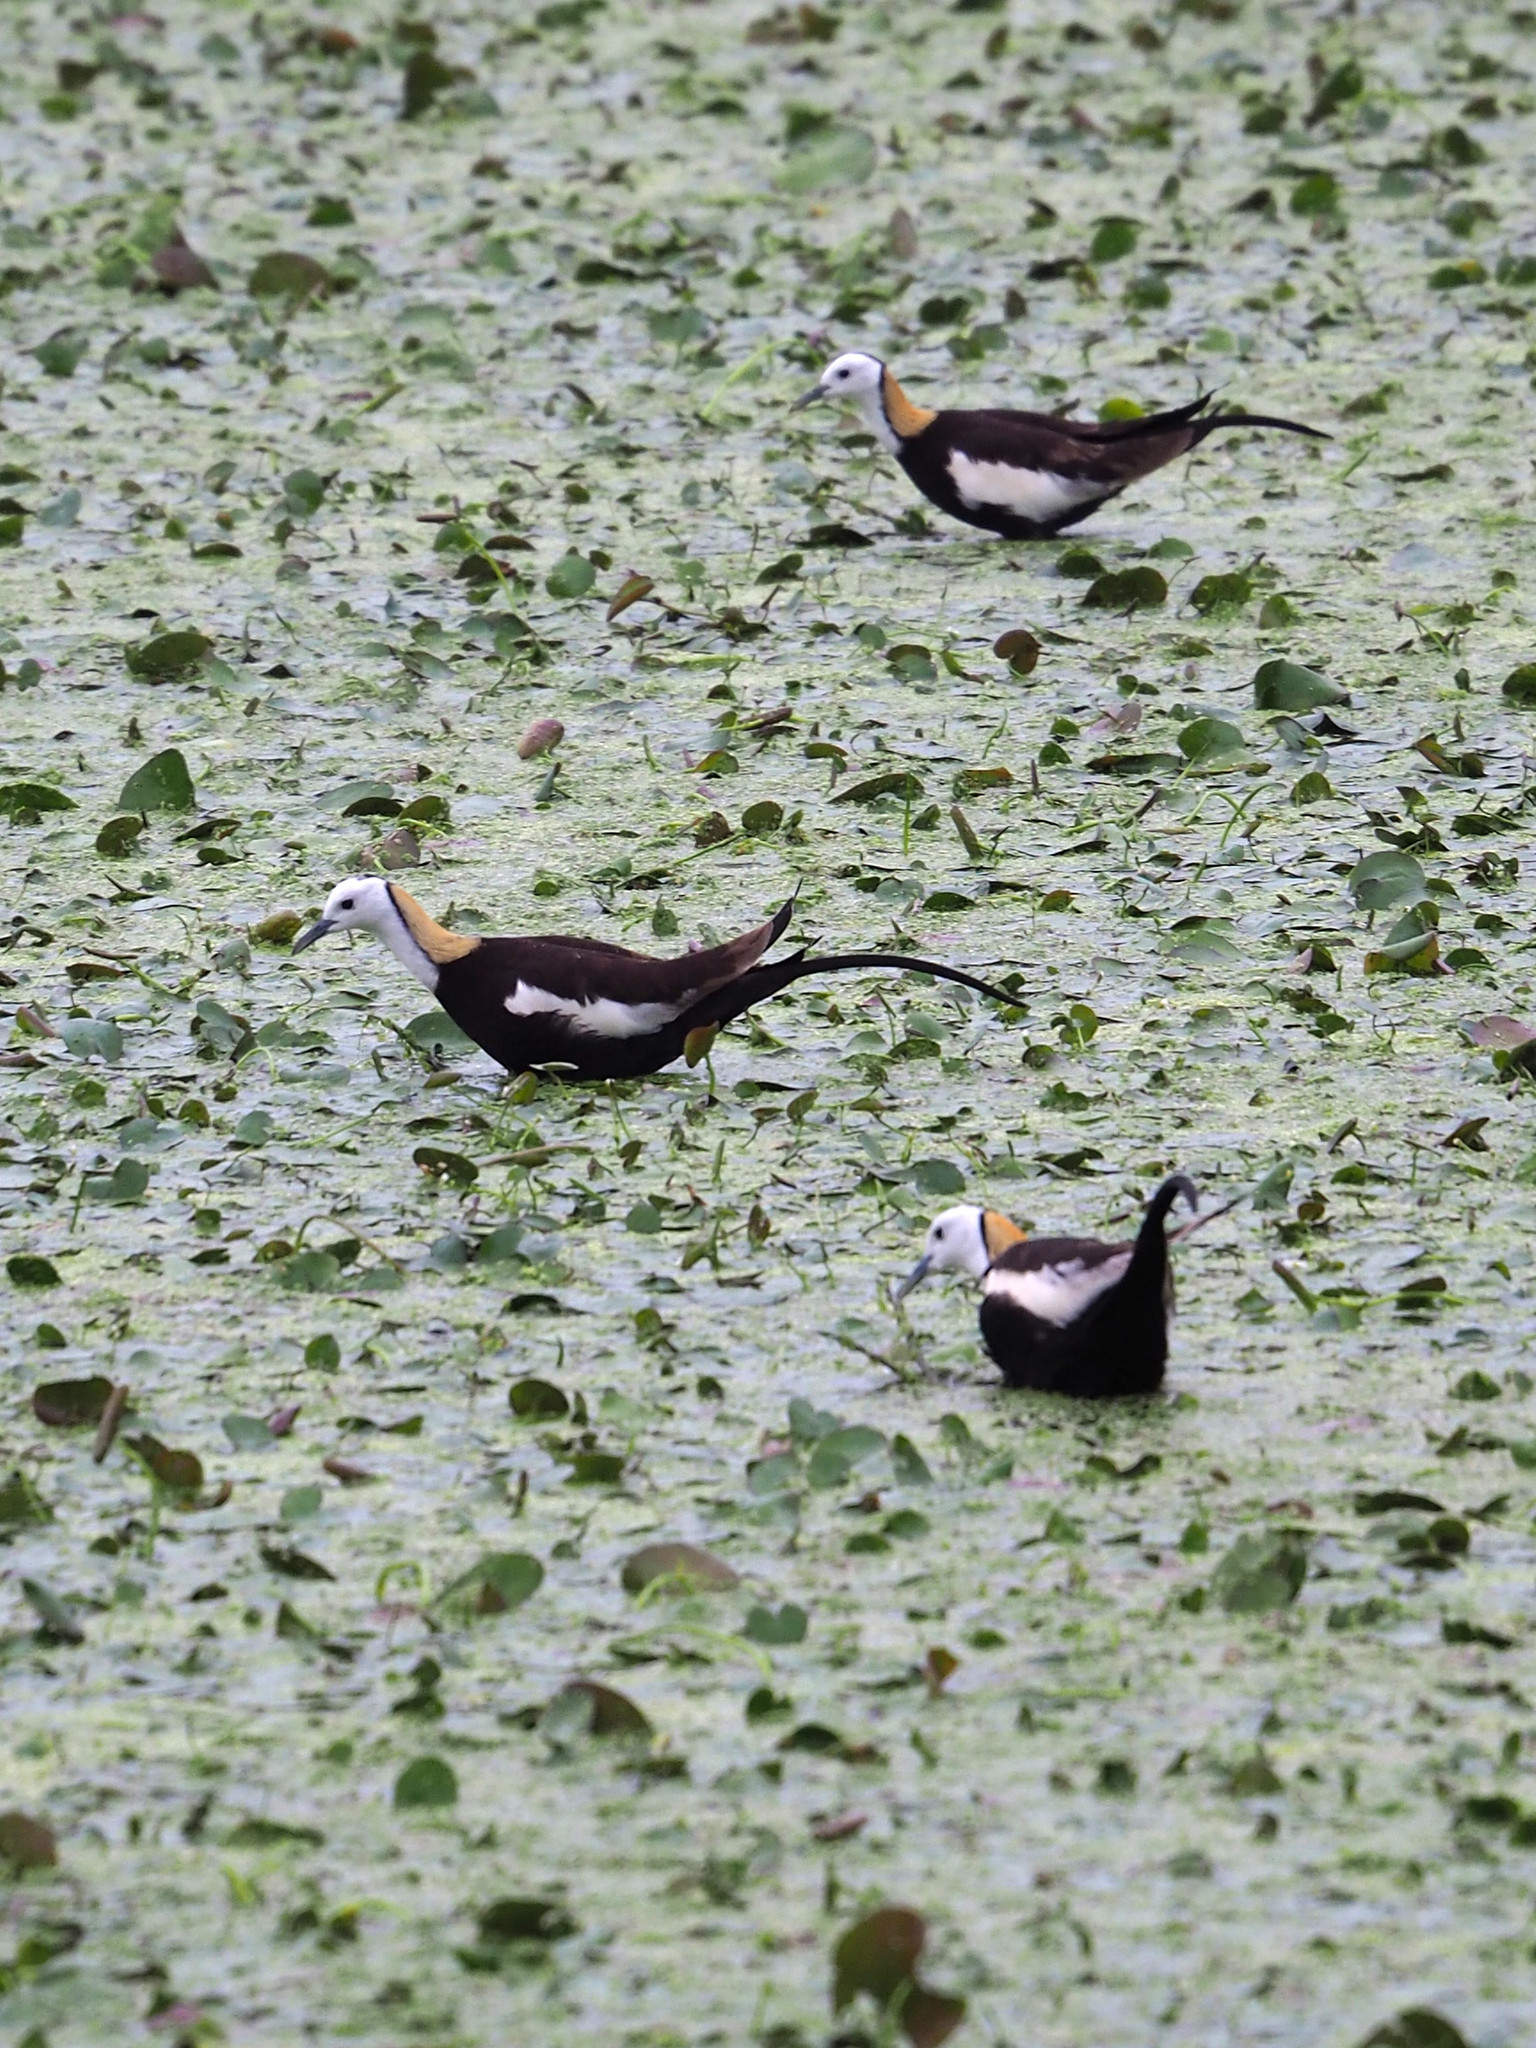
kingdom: Animalia
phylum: Chordata
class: Aves
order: Charadriiformes
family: Jacanidae
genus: Hydrophasianus
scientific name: Hydrophasianus chirurgus
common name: Pheasant-tailed jacana
